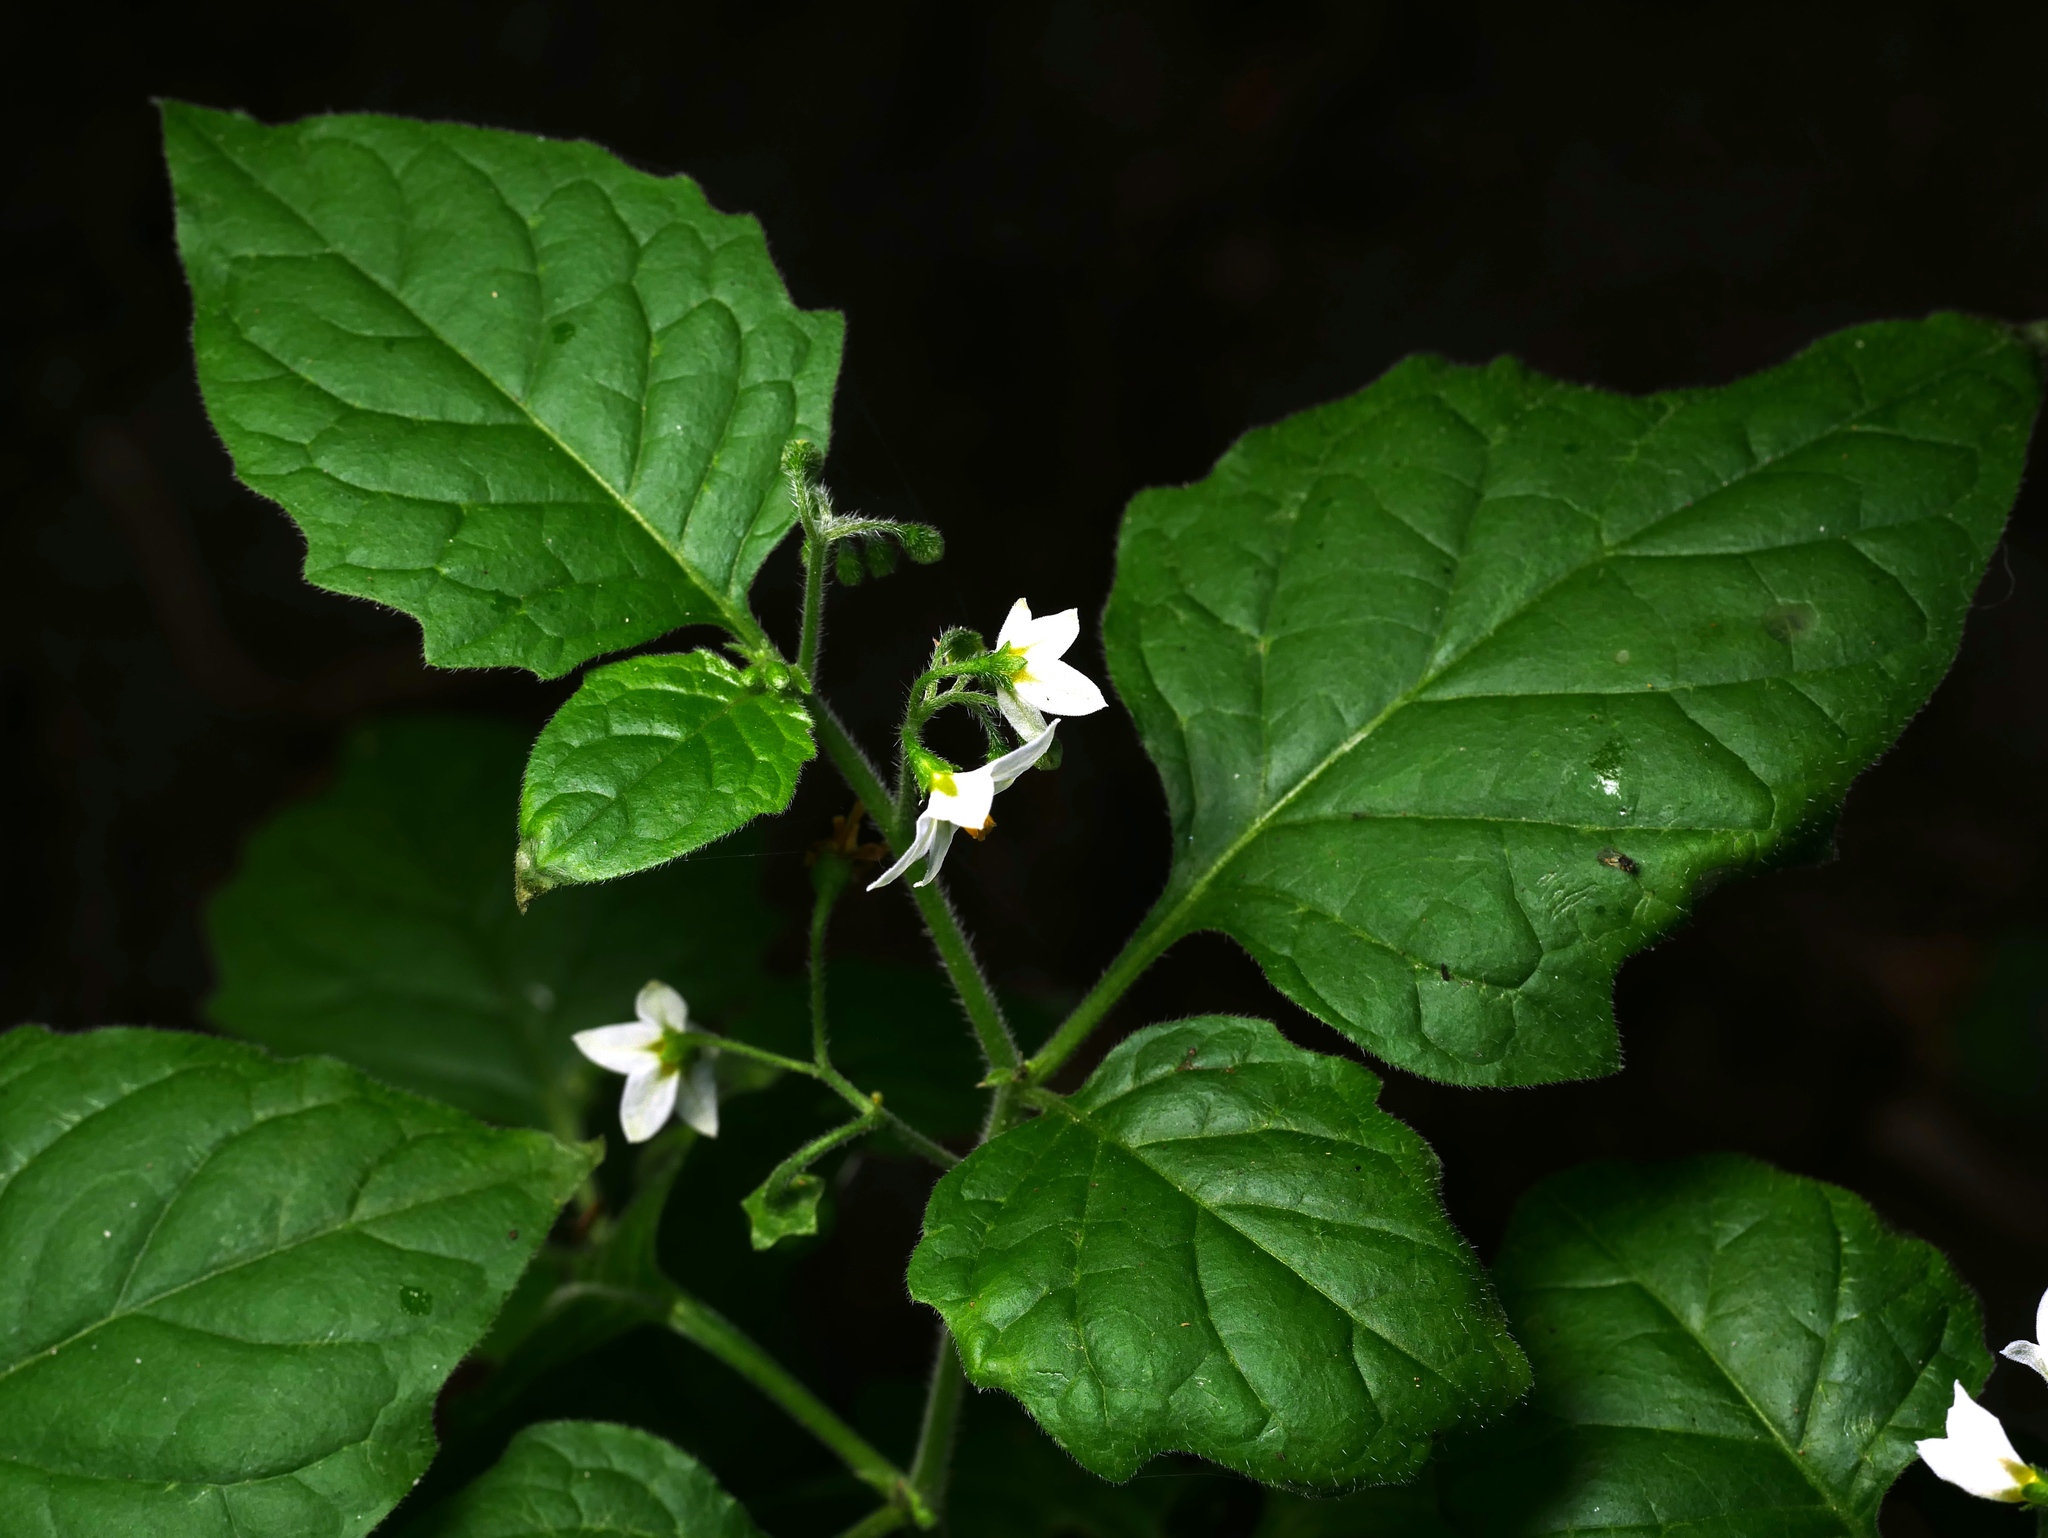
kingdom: Plantae
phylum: Tracheophyta
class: Magnoliopsida
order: Solanales
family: Solanaceae
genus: Solanum
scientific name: Solanum nigrum
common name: Black nightshade
